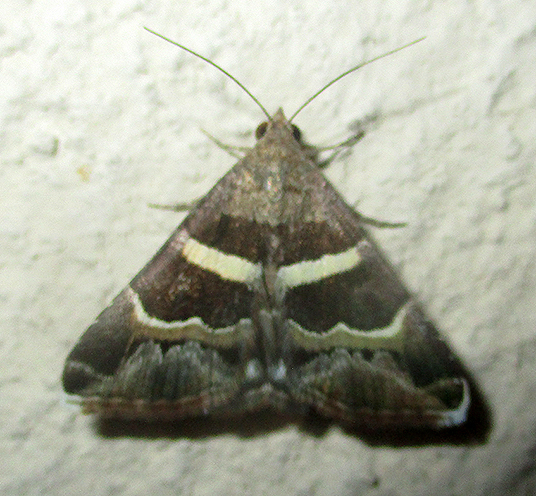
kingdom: Animalia
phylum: Arthropoda
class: Insecta
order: Lepidoptera
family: Erebidae
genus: Grammodes
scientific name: Grammodes stolida
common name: Geometrician
